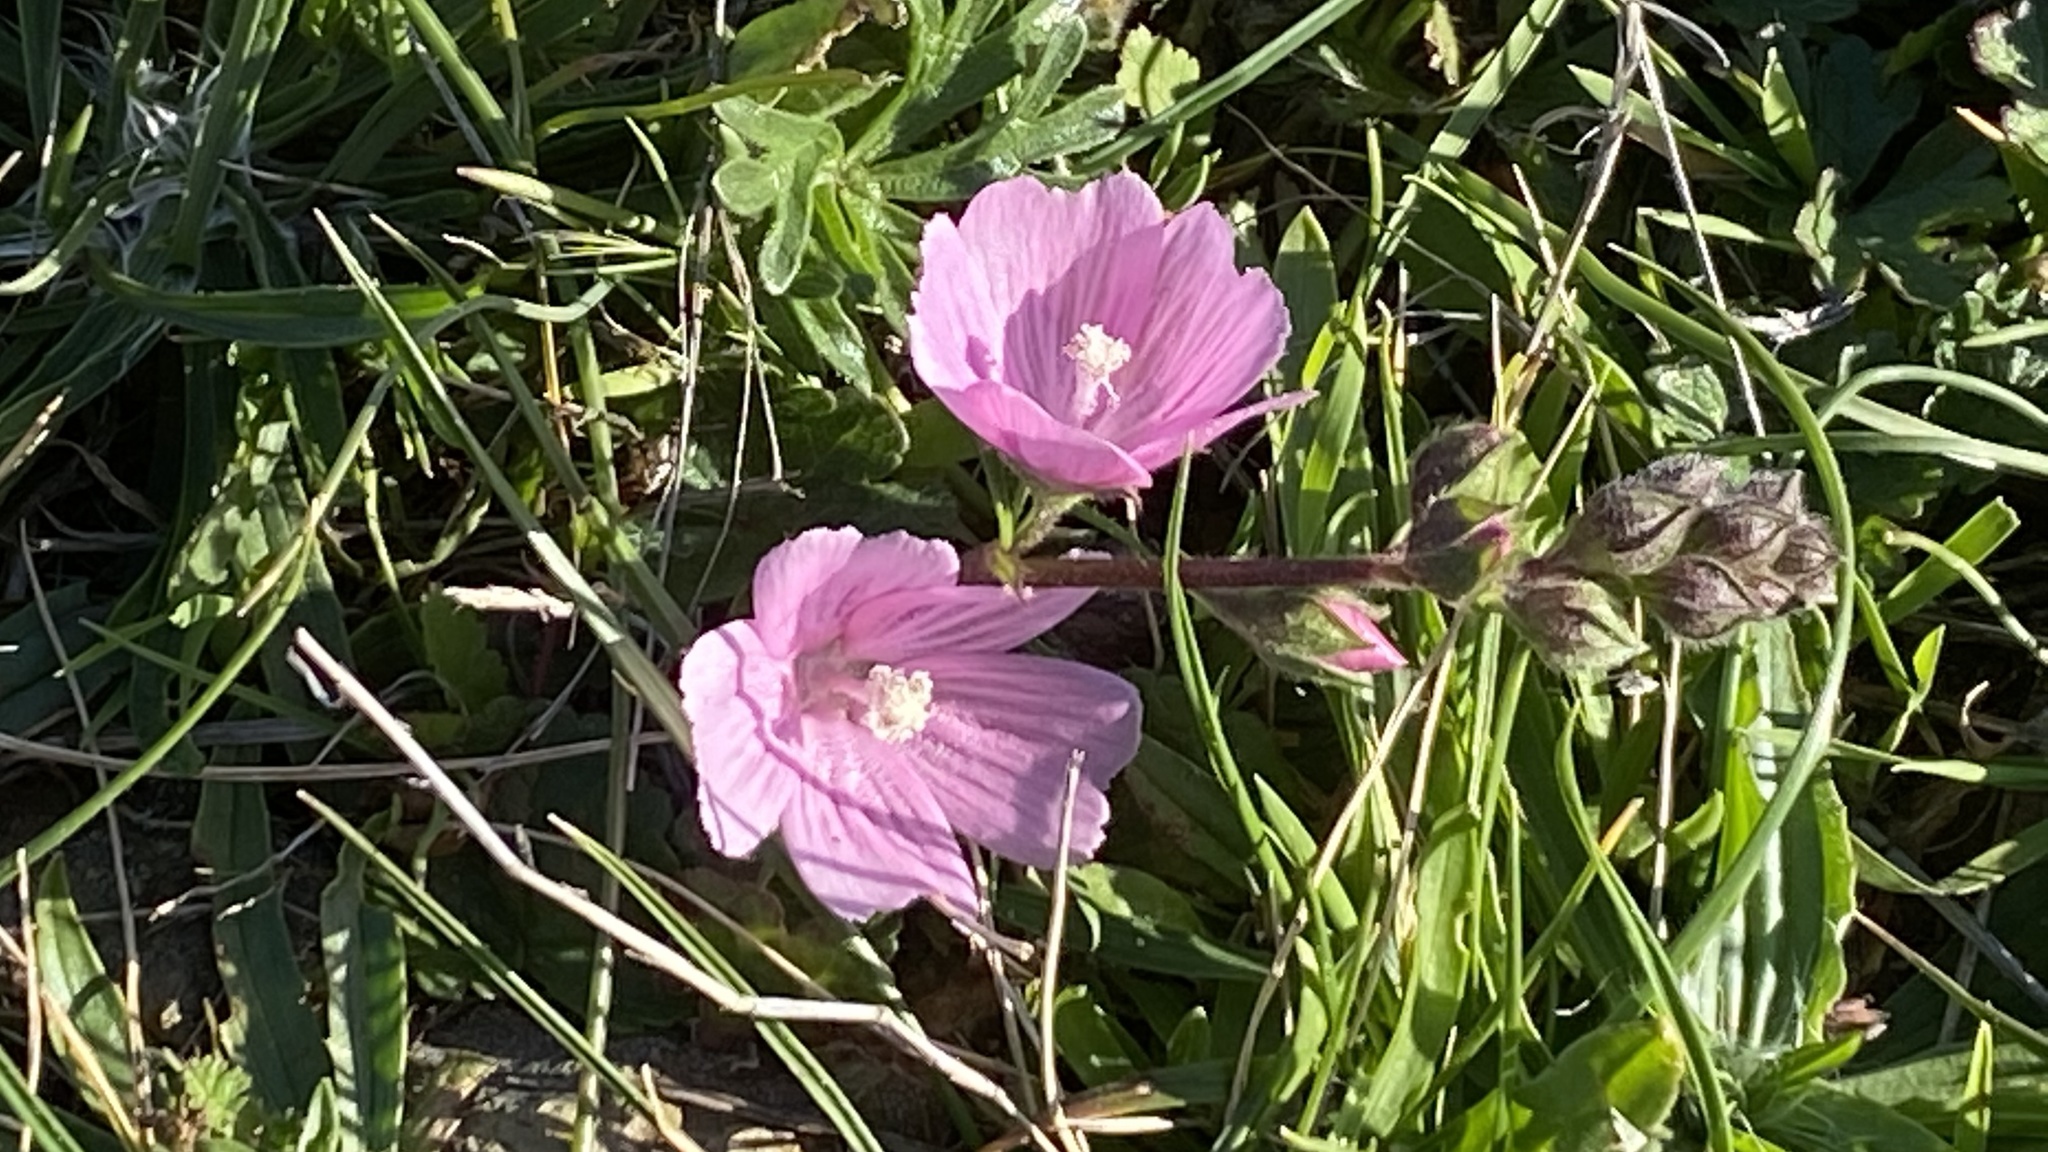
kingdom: Plantae
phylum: Tracheophyta
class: Magnoliopsida
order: Malvales
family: Malvaceae
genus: Sidalcea
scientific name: Sidalcea malviflora
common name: Greek mallow
